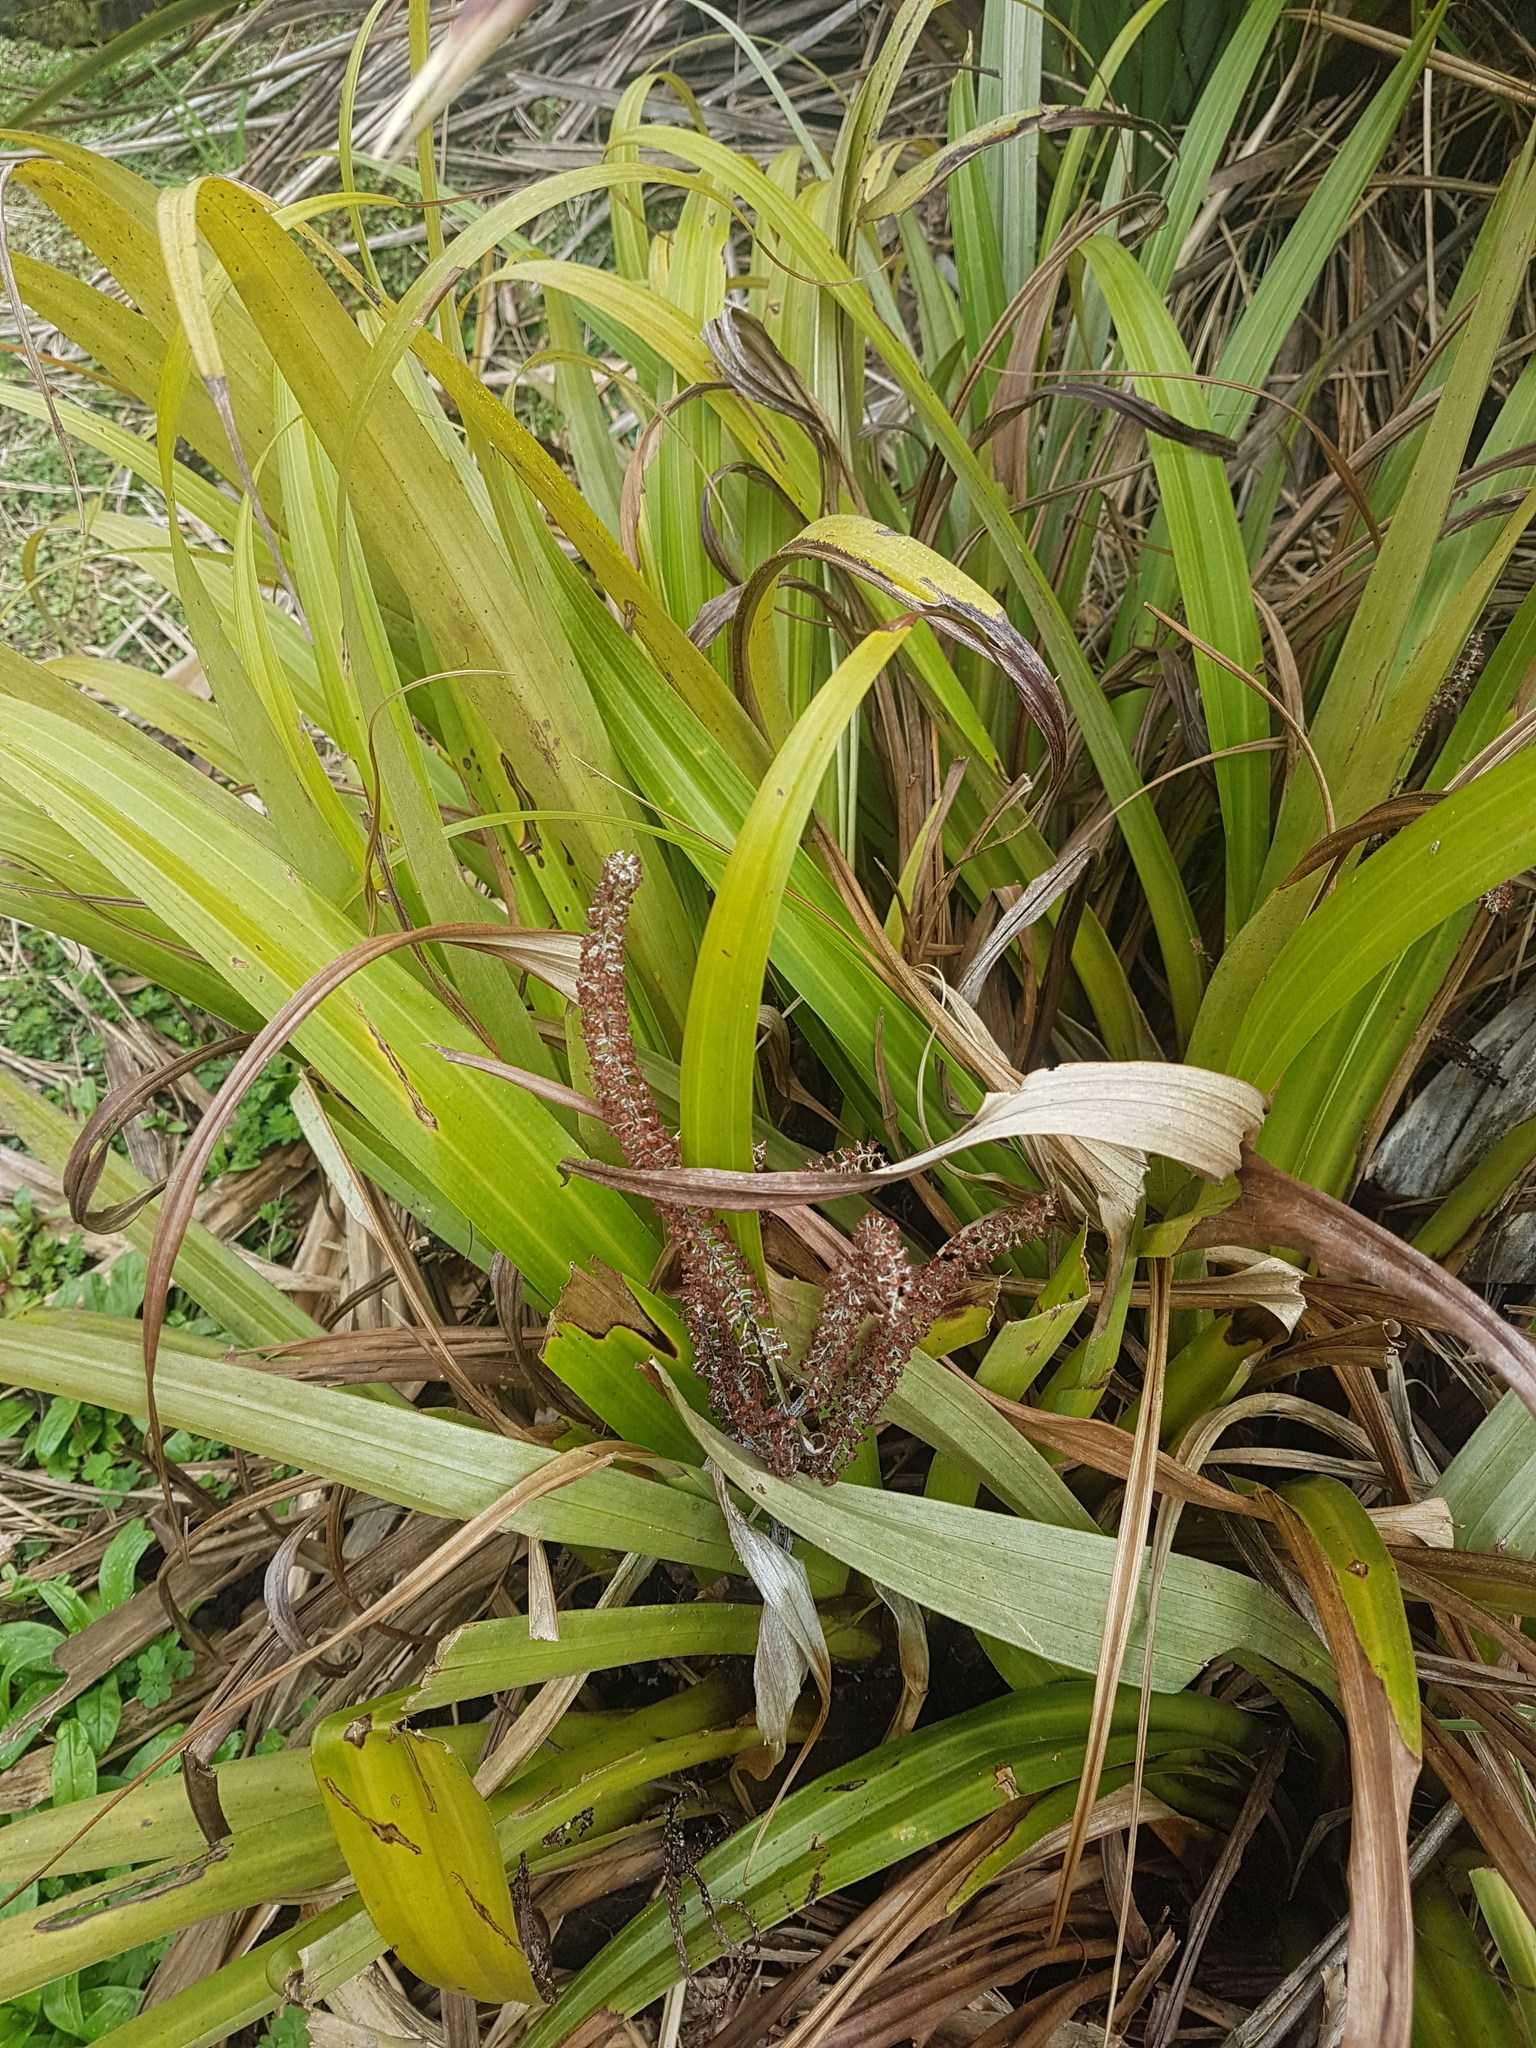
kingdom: Plantae
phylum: Tracheophyta
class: Liliopsida
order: Asparagales
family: Asteliaceae
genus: Astelia
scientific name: Astelia hastata
